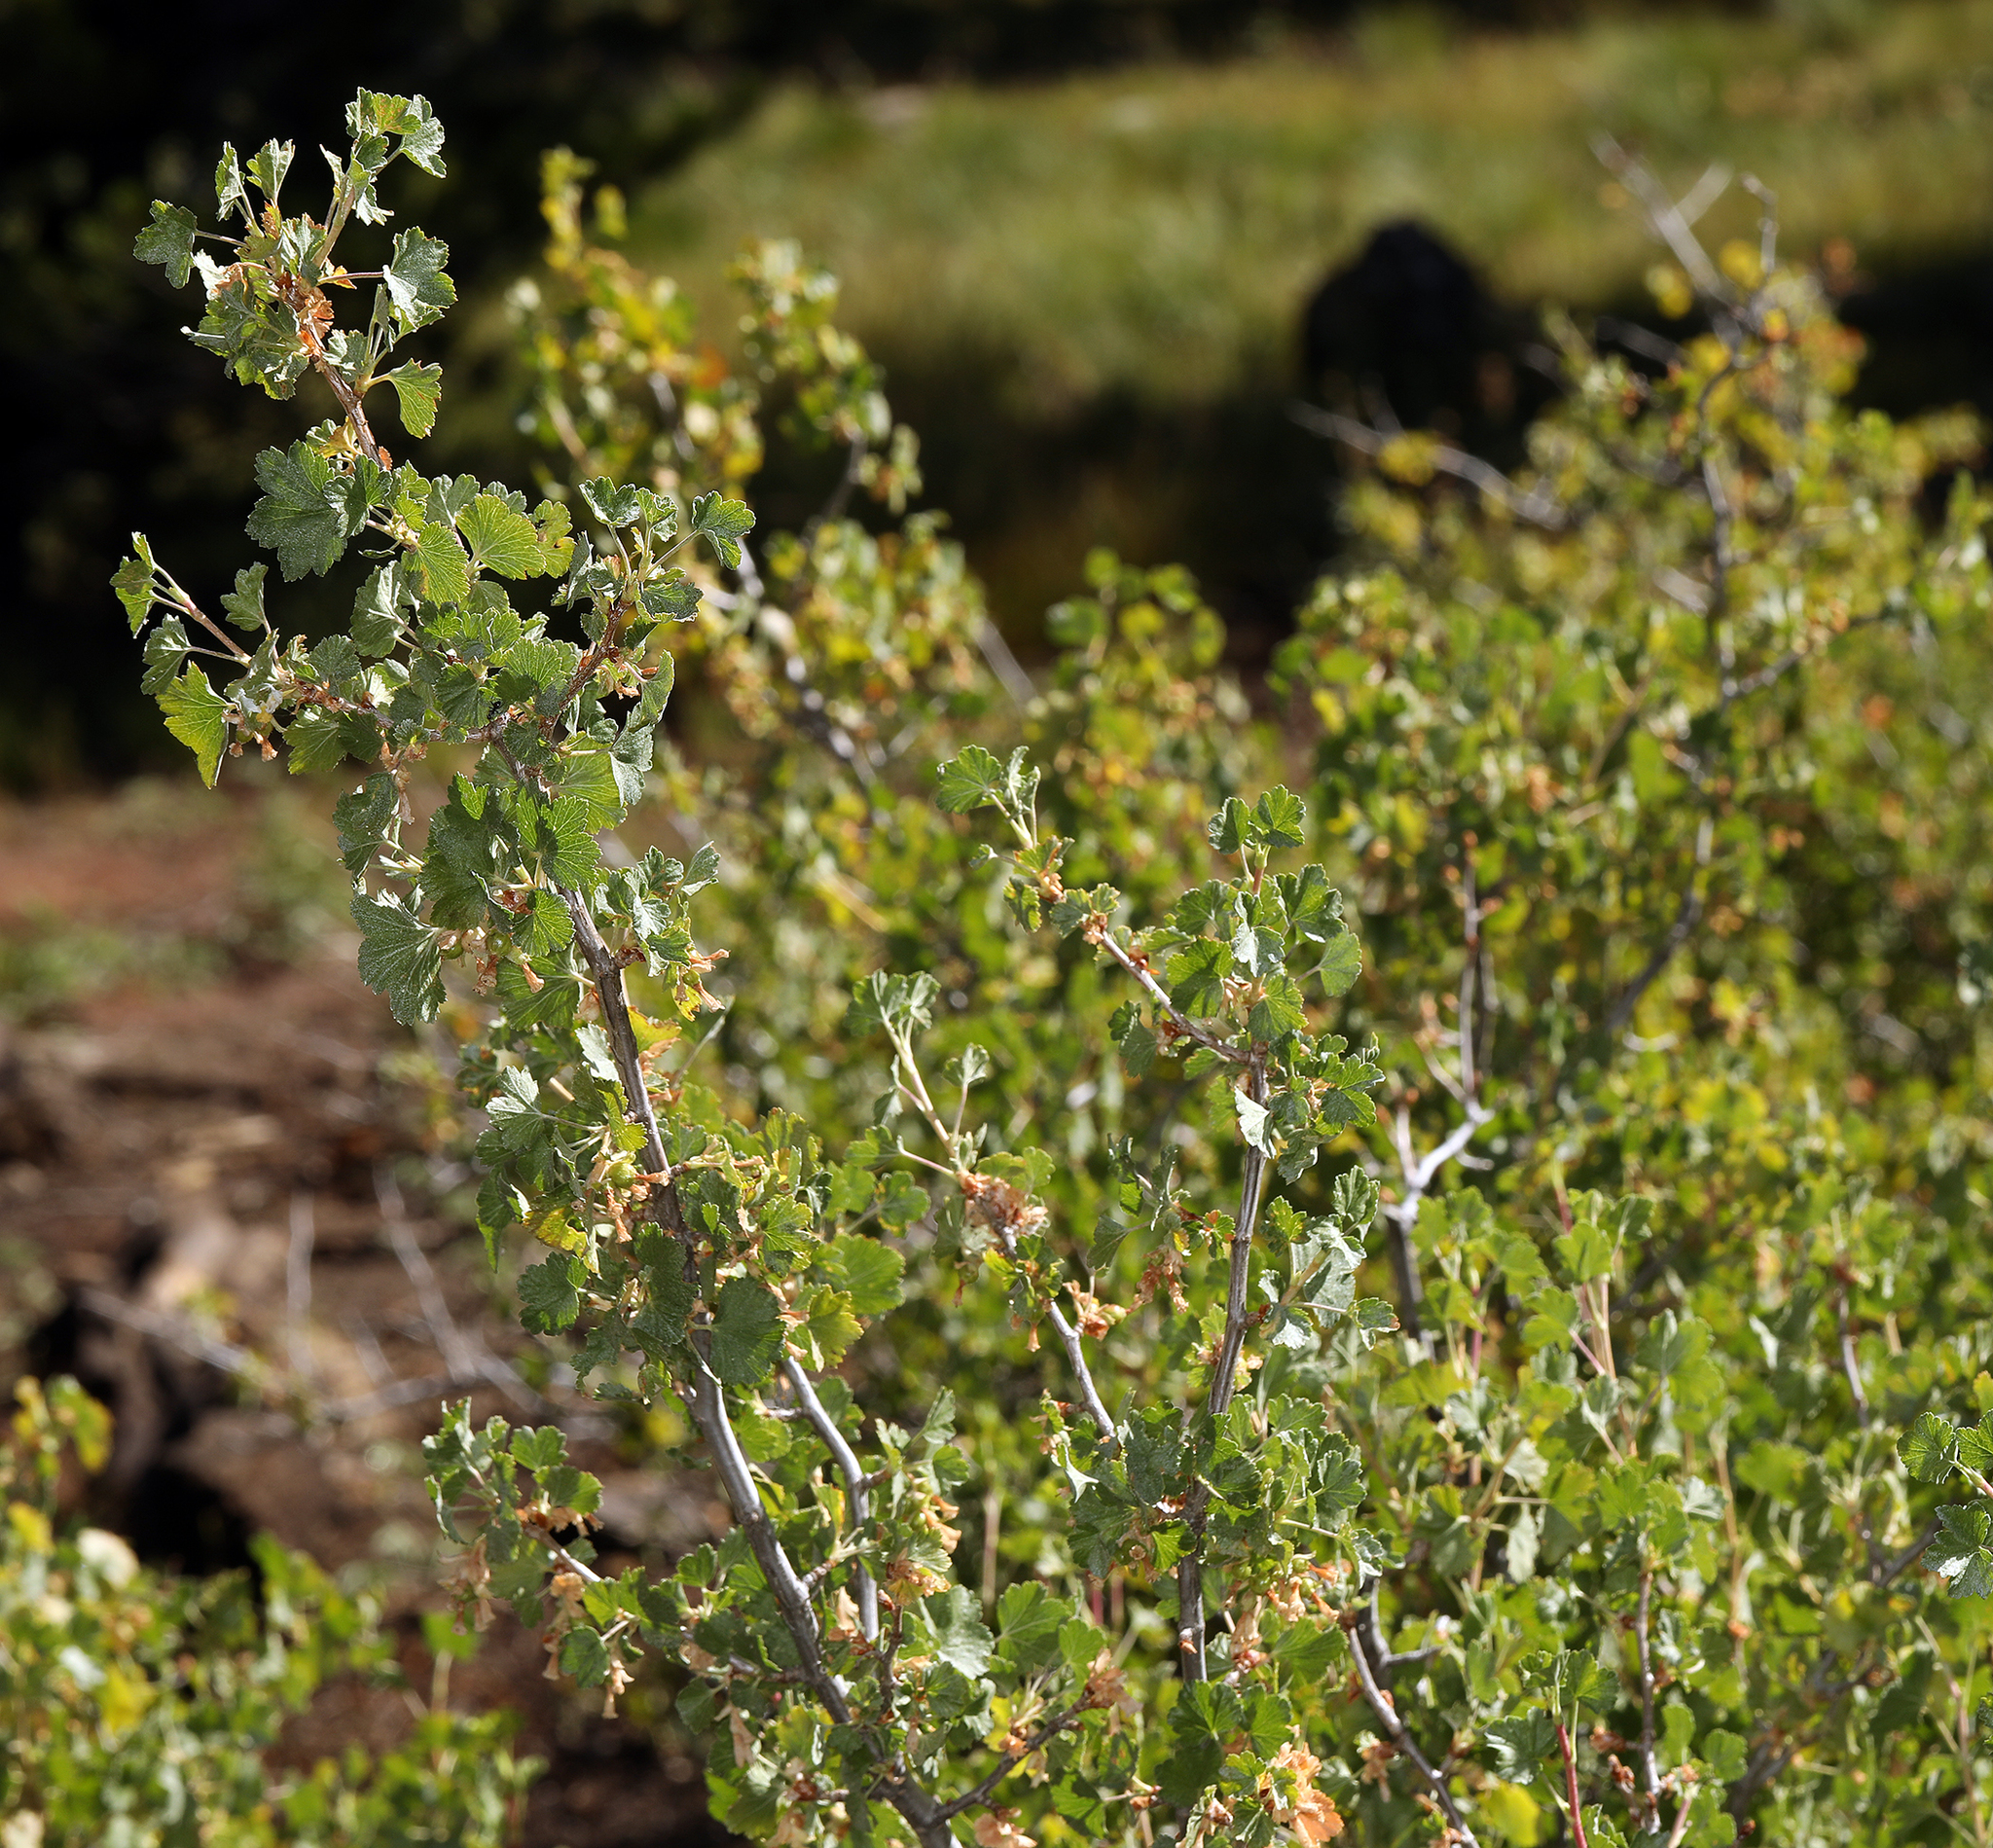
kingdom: Plantae
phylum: Tracheophyta
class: Magnoliopsida
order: Saxifragales
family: Grossulariaceae
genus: Ribes
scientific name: Ribes cereum
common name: Wax currant
